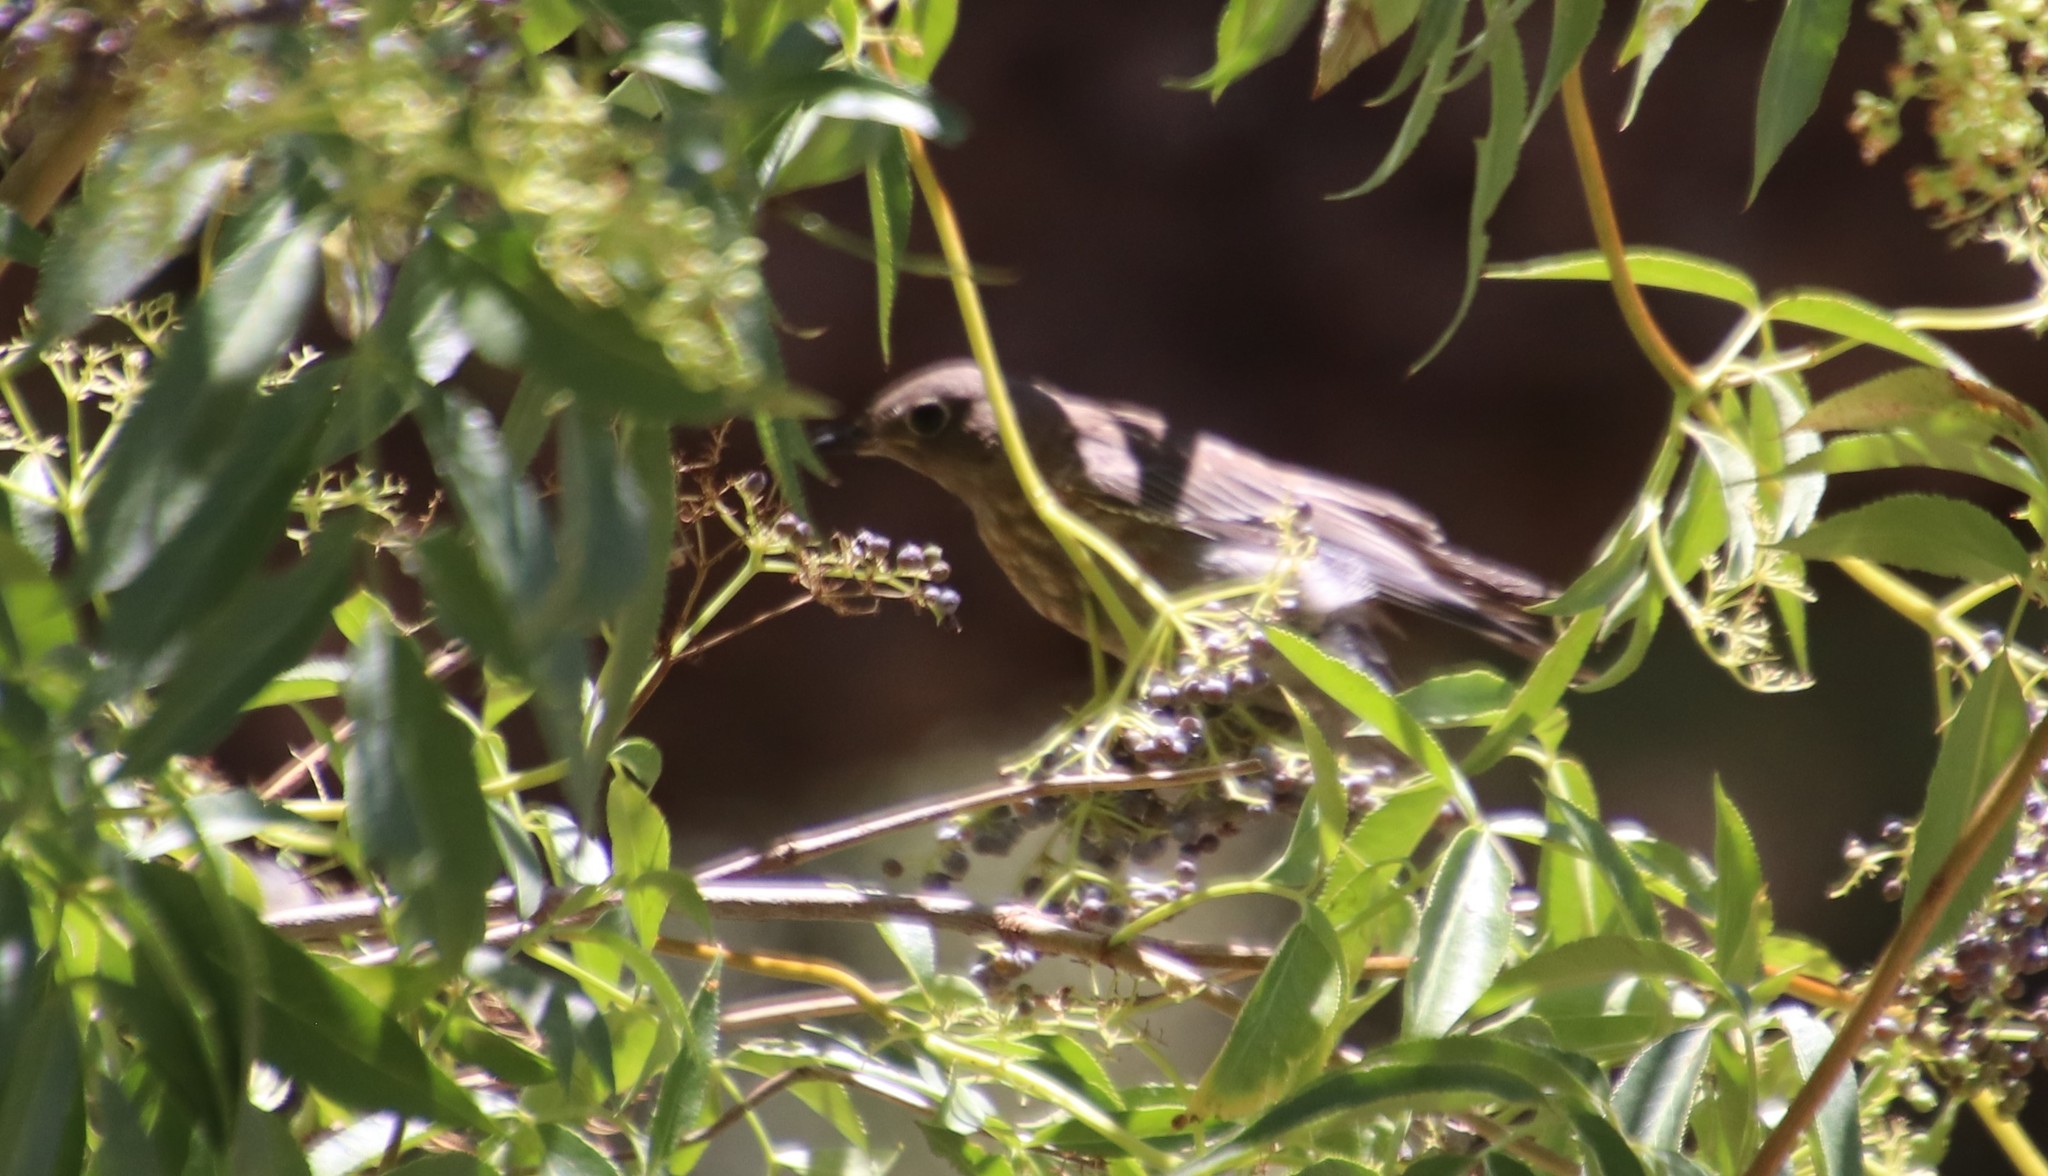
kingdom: Animalia
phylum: Chordata
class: Aves
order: Passeriformes
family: Turdidae
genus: Sialia
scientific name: Sialia mexicana
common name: Western bluebird
